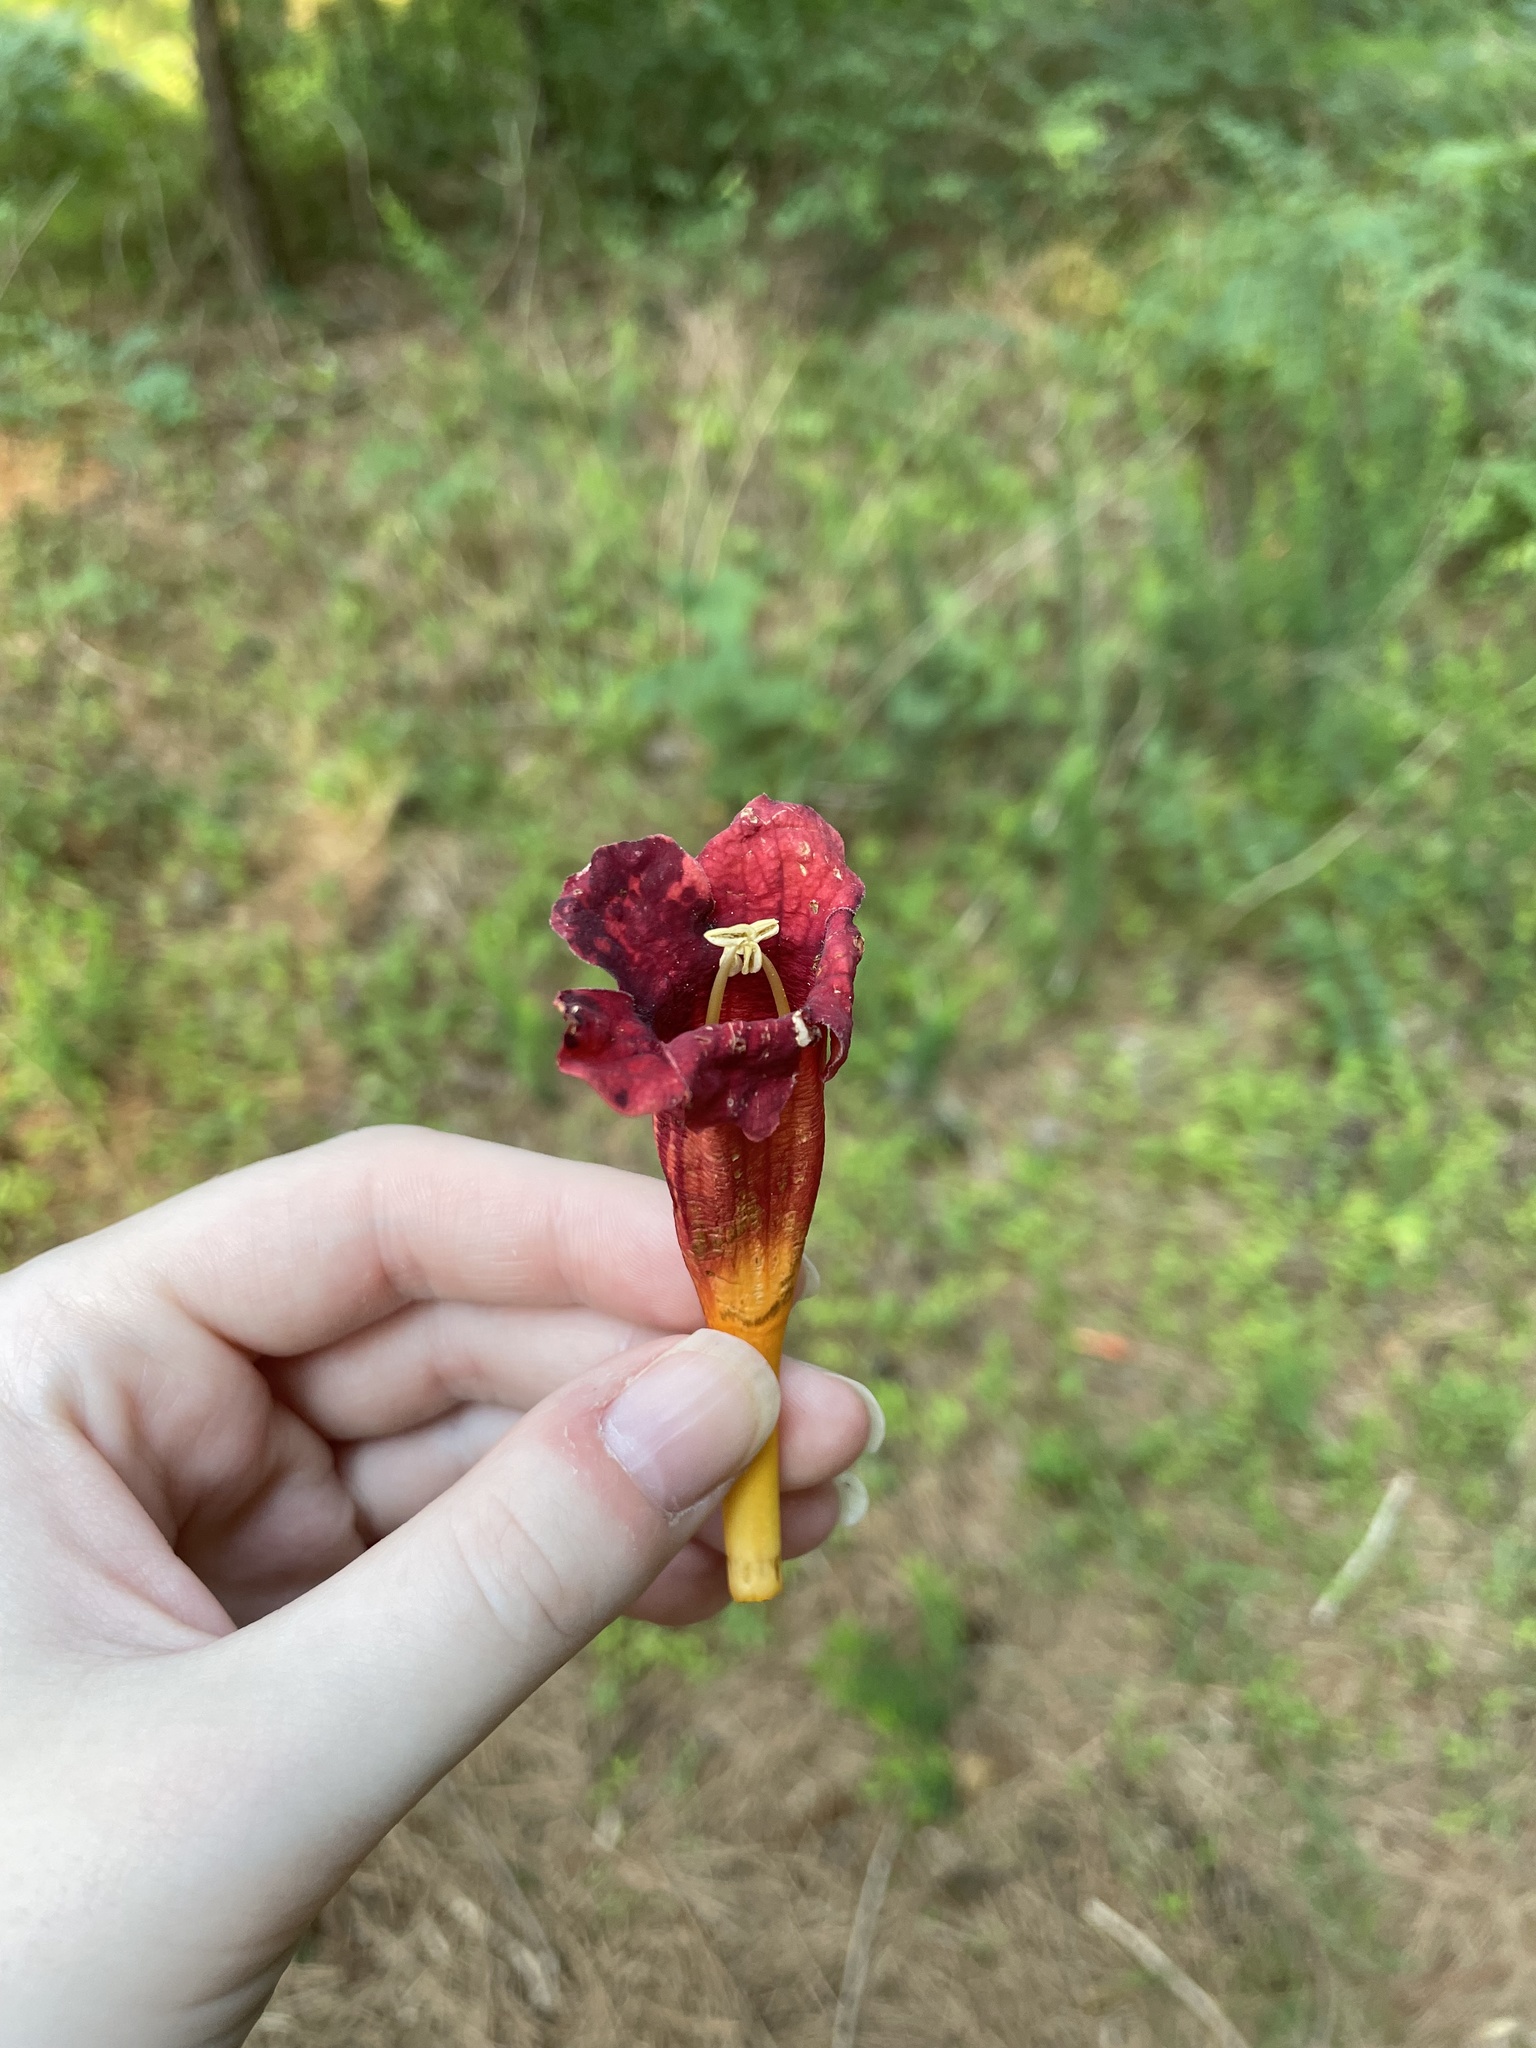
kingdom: Plantae
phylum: Tracheophyta
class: Magnoliopsida
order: Lamiales
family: Bignoniaceae
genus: Campsis
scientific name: Campsis radicans
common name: Trumpet-creeper
